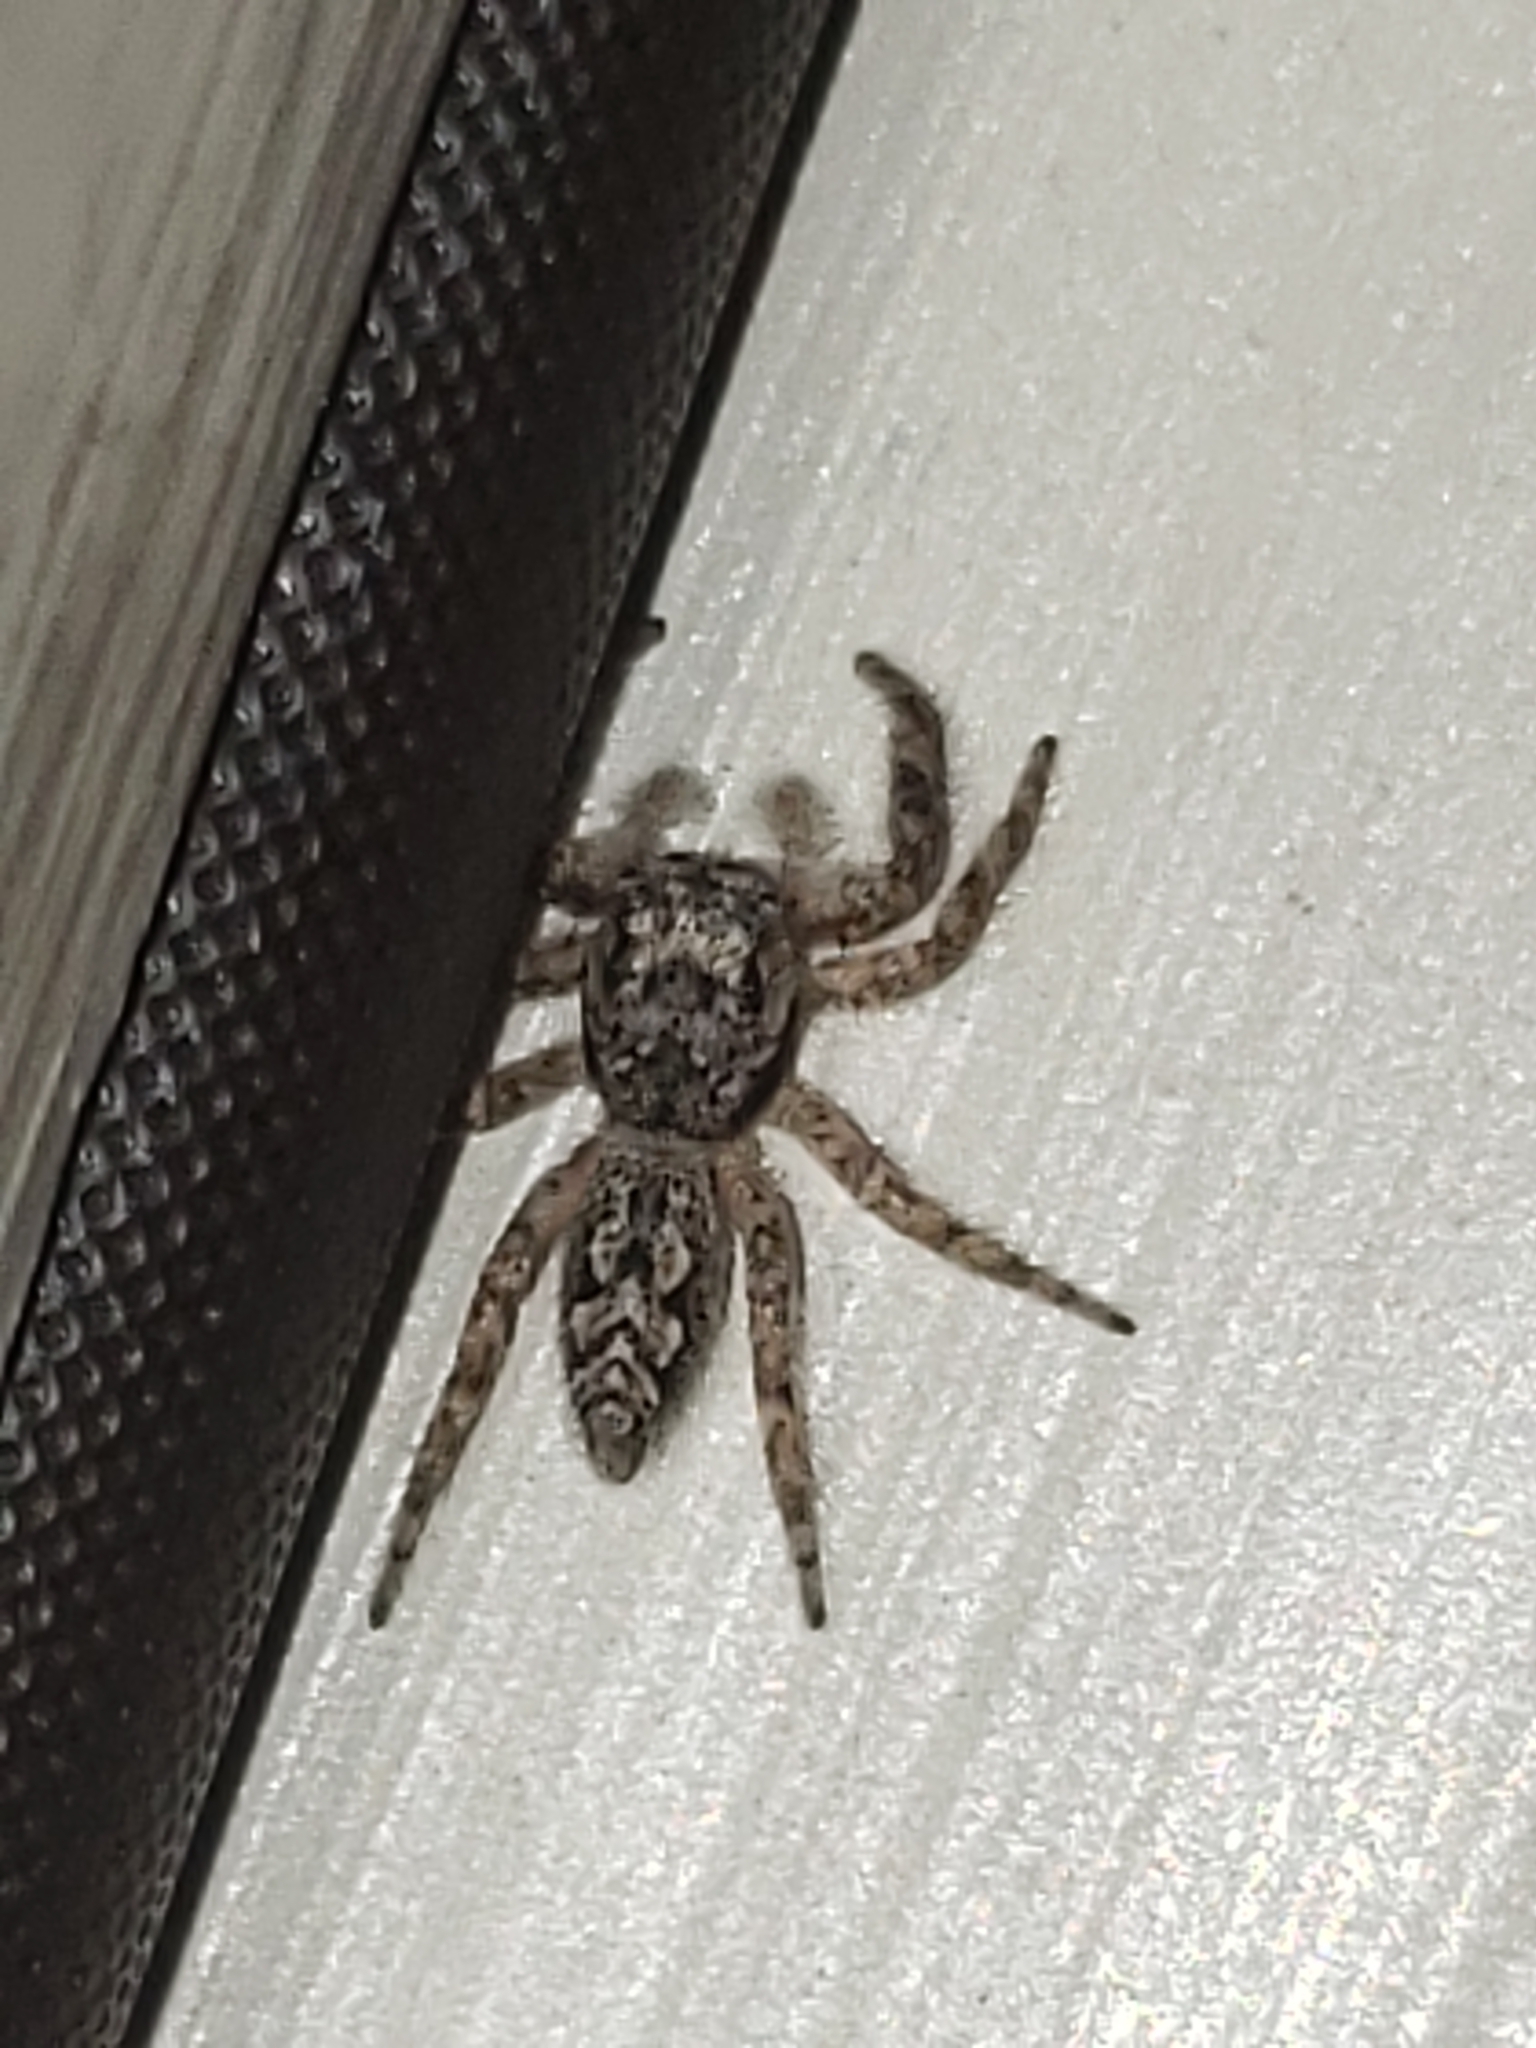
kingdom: Animalia
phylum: Arthropoda
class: Arachnida
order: Araneae
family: Salticidae
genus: Platycryptus
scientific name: Platycryptus undatus
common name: Tan jumping spider
